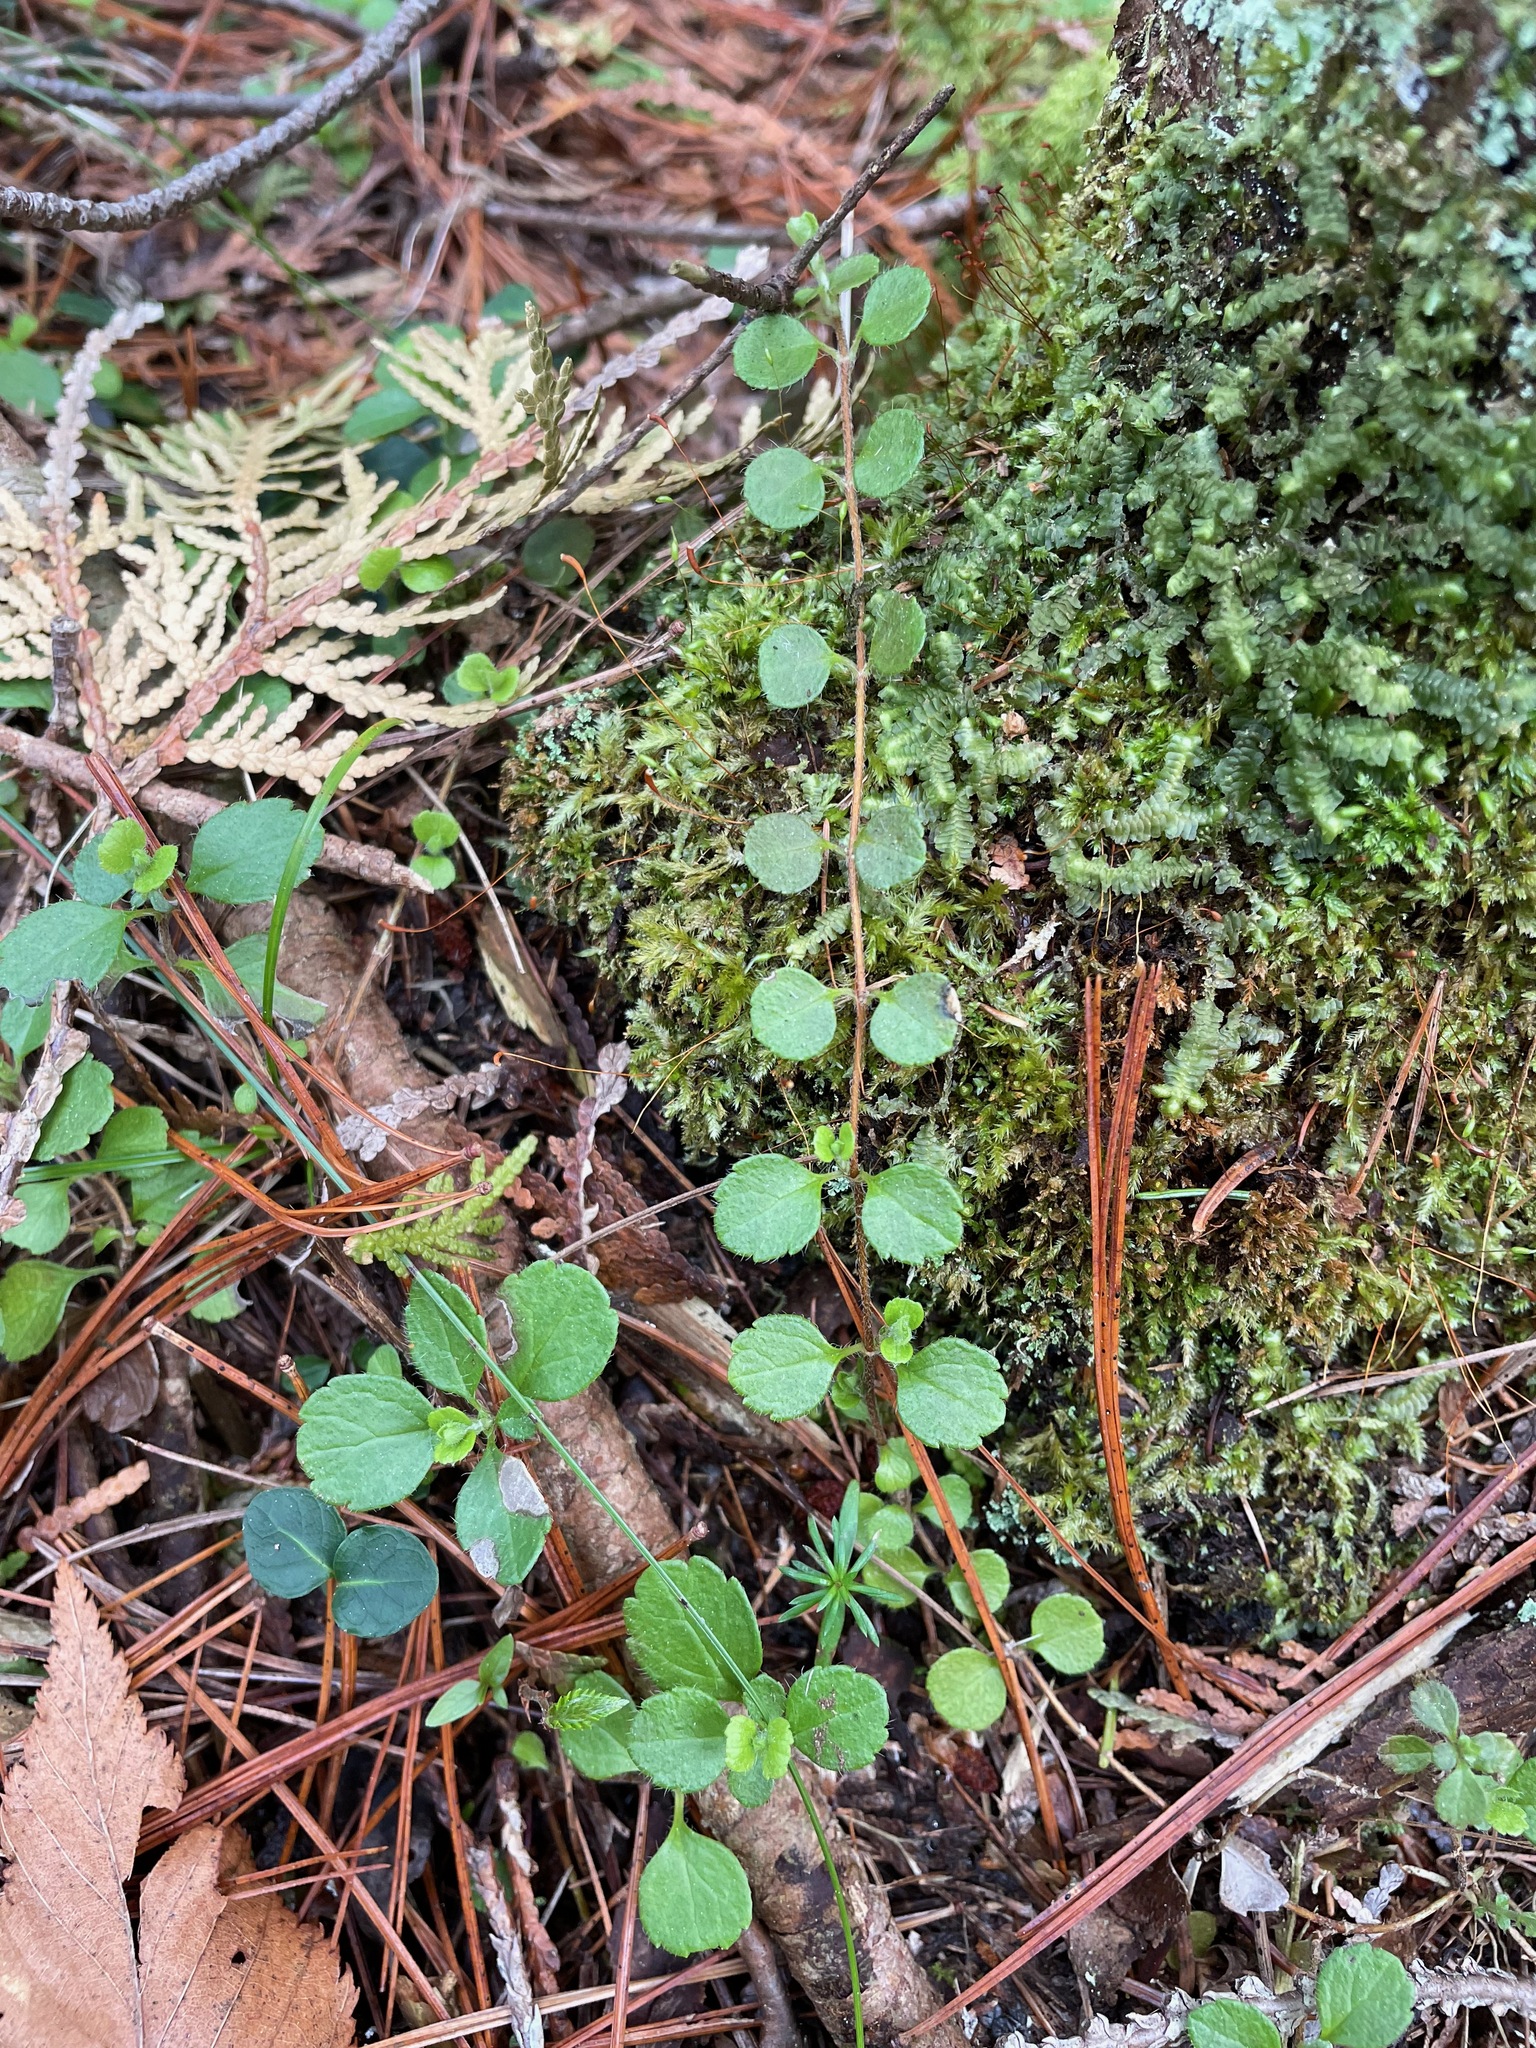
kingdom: Plantae
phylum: Tracheophyta
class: Magnoliopsida
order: Dipsacales
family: Caprifoliaceae
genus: Linnaea
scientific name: Linnaea borealis
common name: Twinflower
